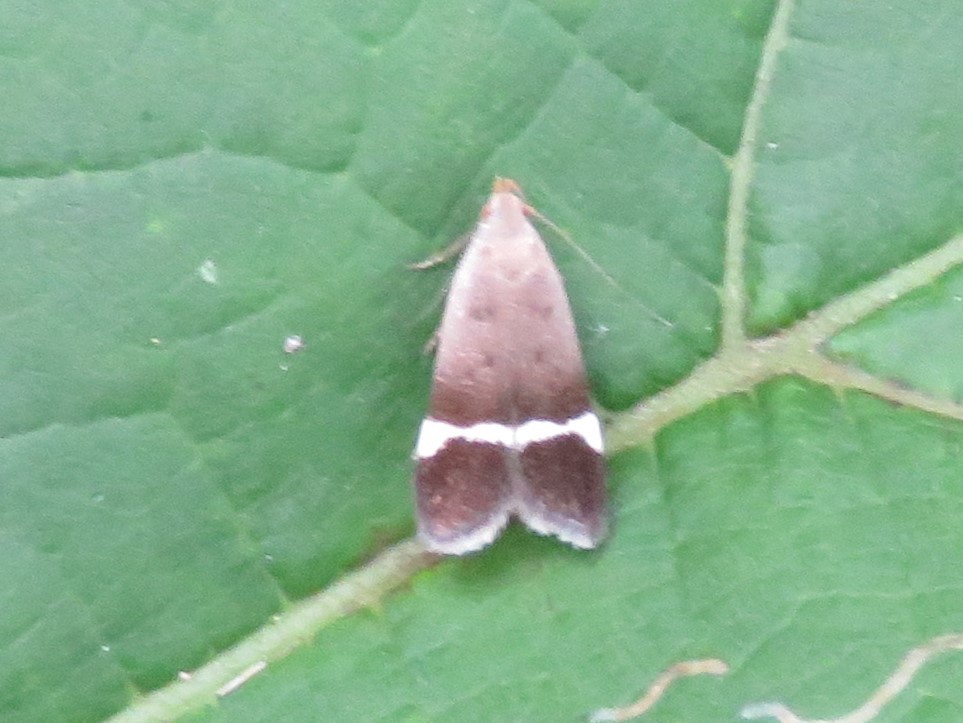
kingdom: Animalia
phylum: Arthropoda
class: Insecta
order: Lepidoptera
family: Gelechiidae
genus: Anacampsis
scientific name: Anacampsis agrimoniella
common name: Agrimony anacampsis moth
